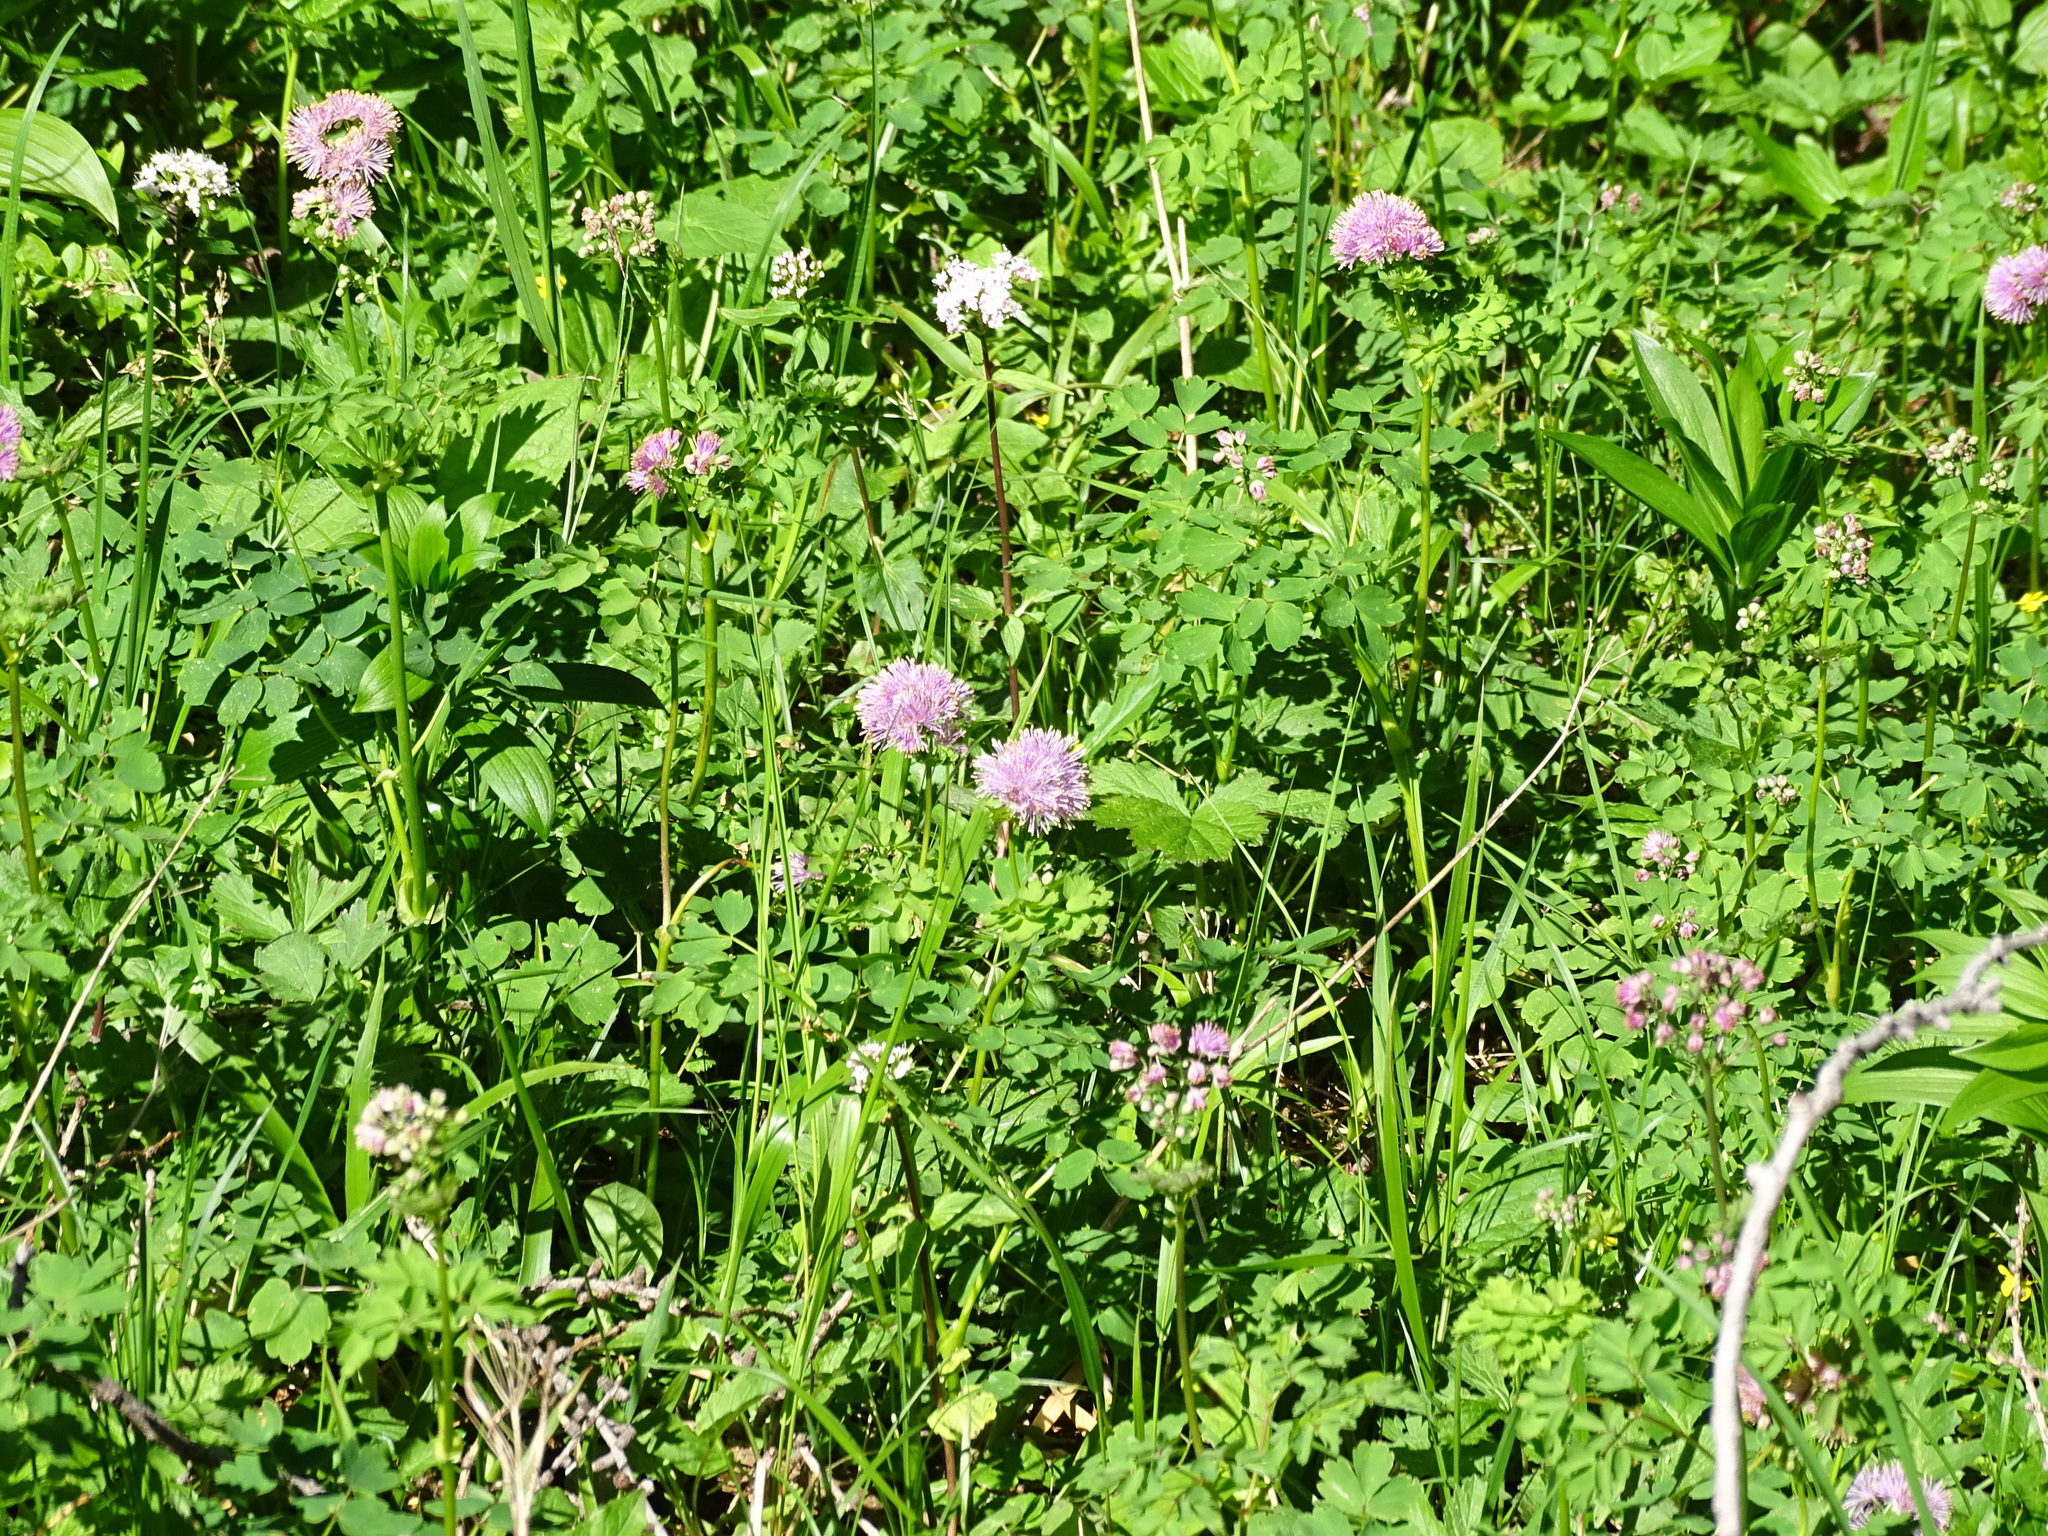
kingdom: Plantae
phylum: Tracheophyta
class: Magnoliopsida
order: Ranunculales
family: Ranunculaceae
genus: Thalictrum
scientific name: Thalictrum aquilegiifolium
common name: French meadow-rue
